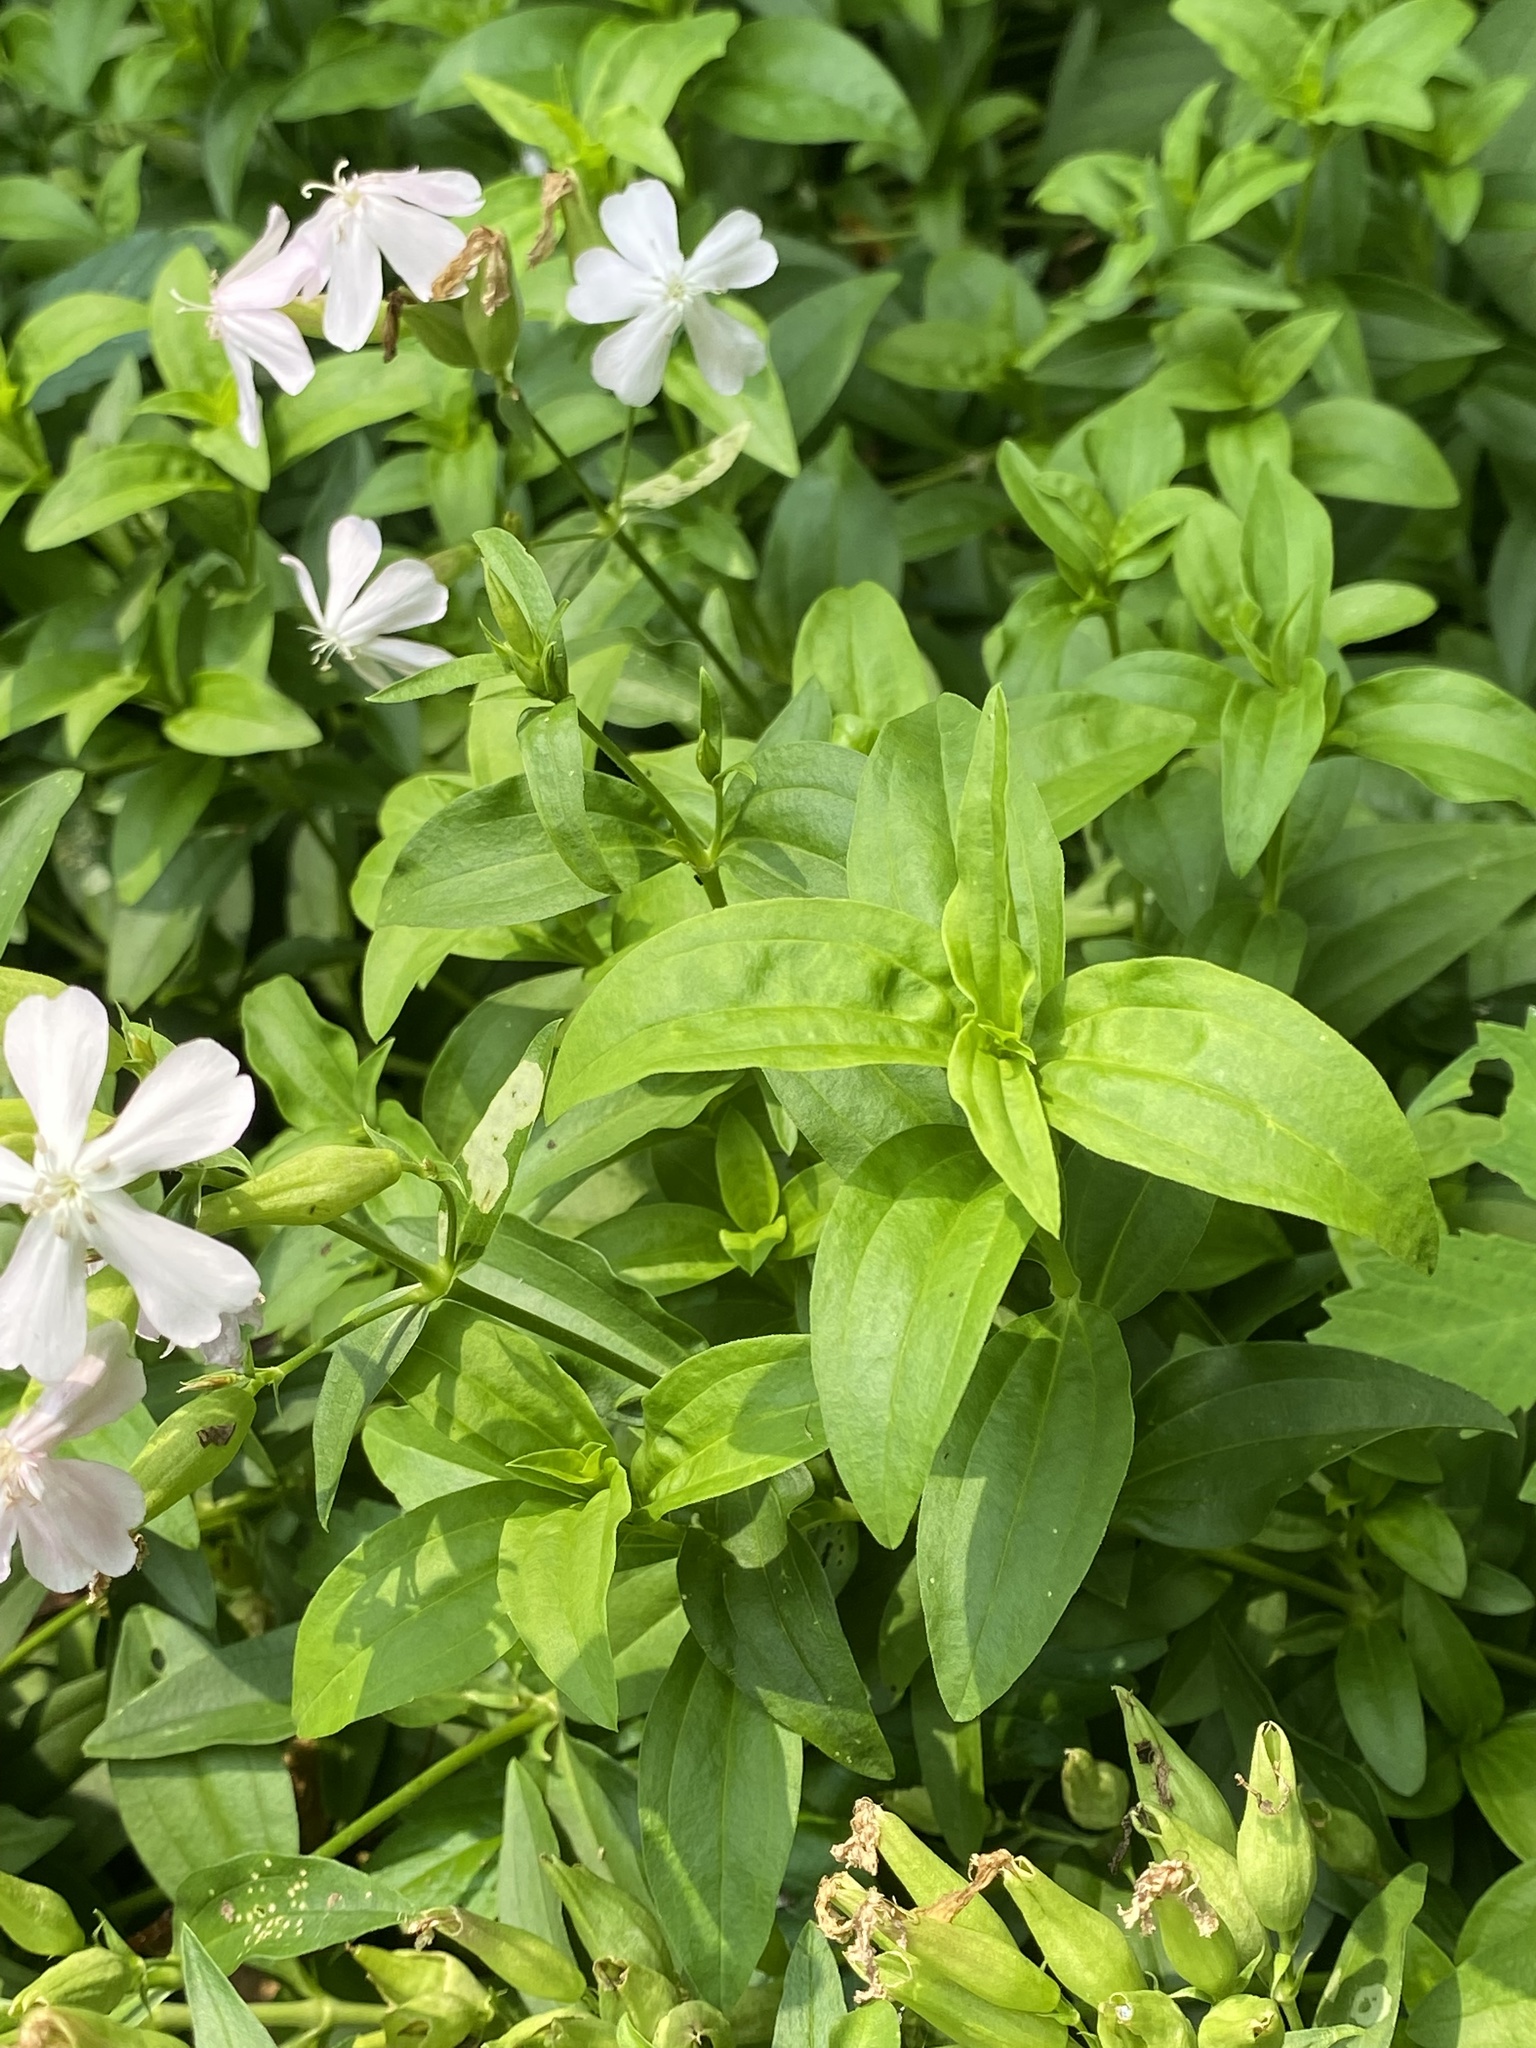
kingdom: Plantae
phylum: Tracheophyta
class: Magnoliopsida
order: Caryophyllales
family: Caryophyllaceae
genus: Saponaria
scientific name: Saponaria officinalis
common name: Soapwort
